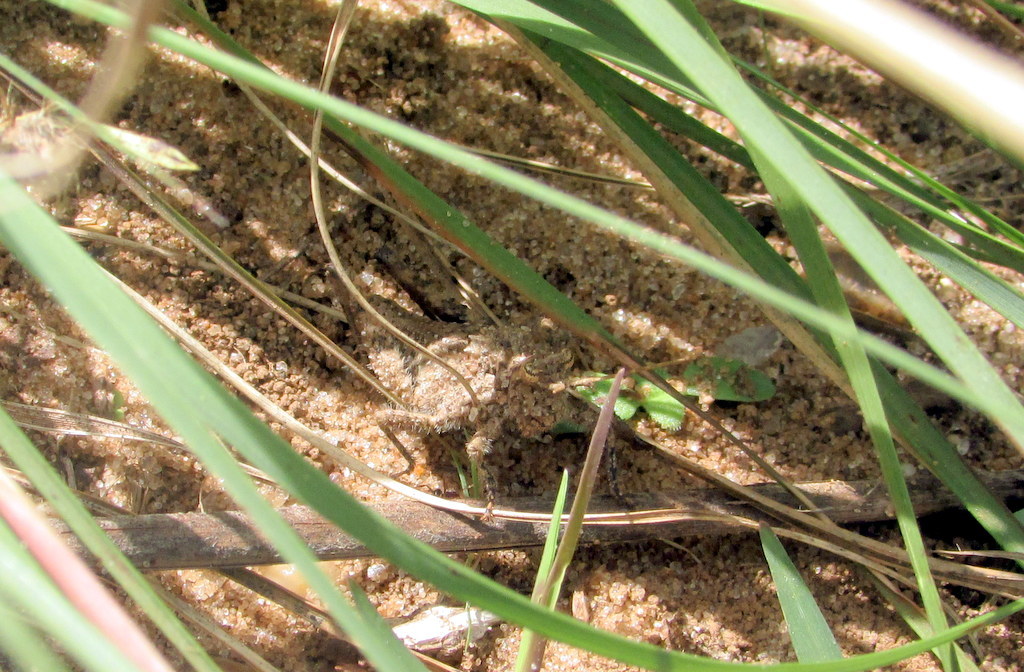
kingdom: Animalia
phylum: Arthropoda
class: Insecta
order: Orthoptera
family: Ommexechidae
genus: Ommexecha
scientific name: Ommexecha virens
